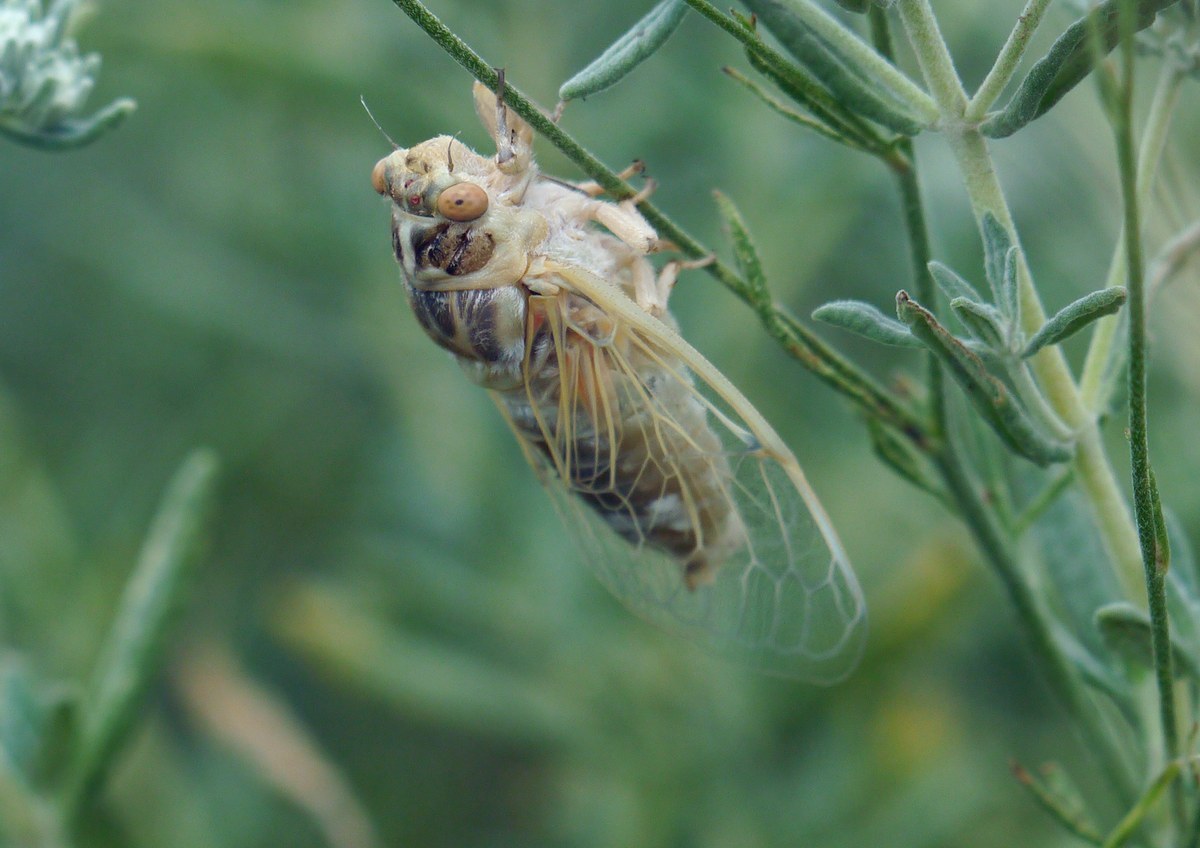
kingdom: Animalia
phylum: Arthropoda
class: Insecta
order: Hemiptera
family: Cicadidae
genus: Cicadatra
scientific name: Cicadatra platyptera
